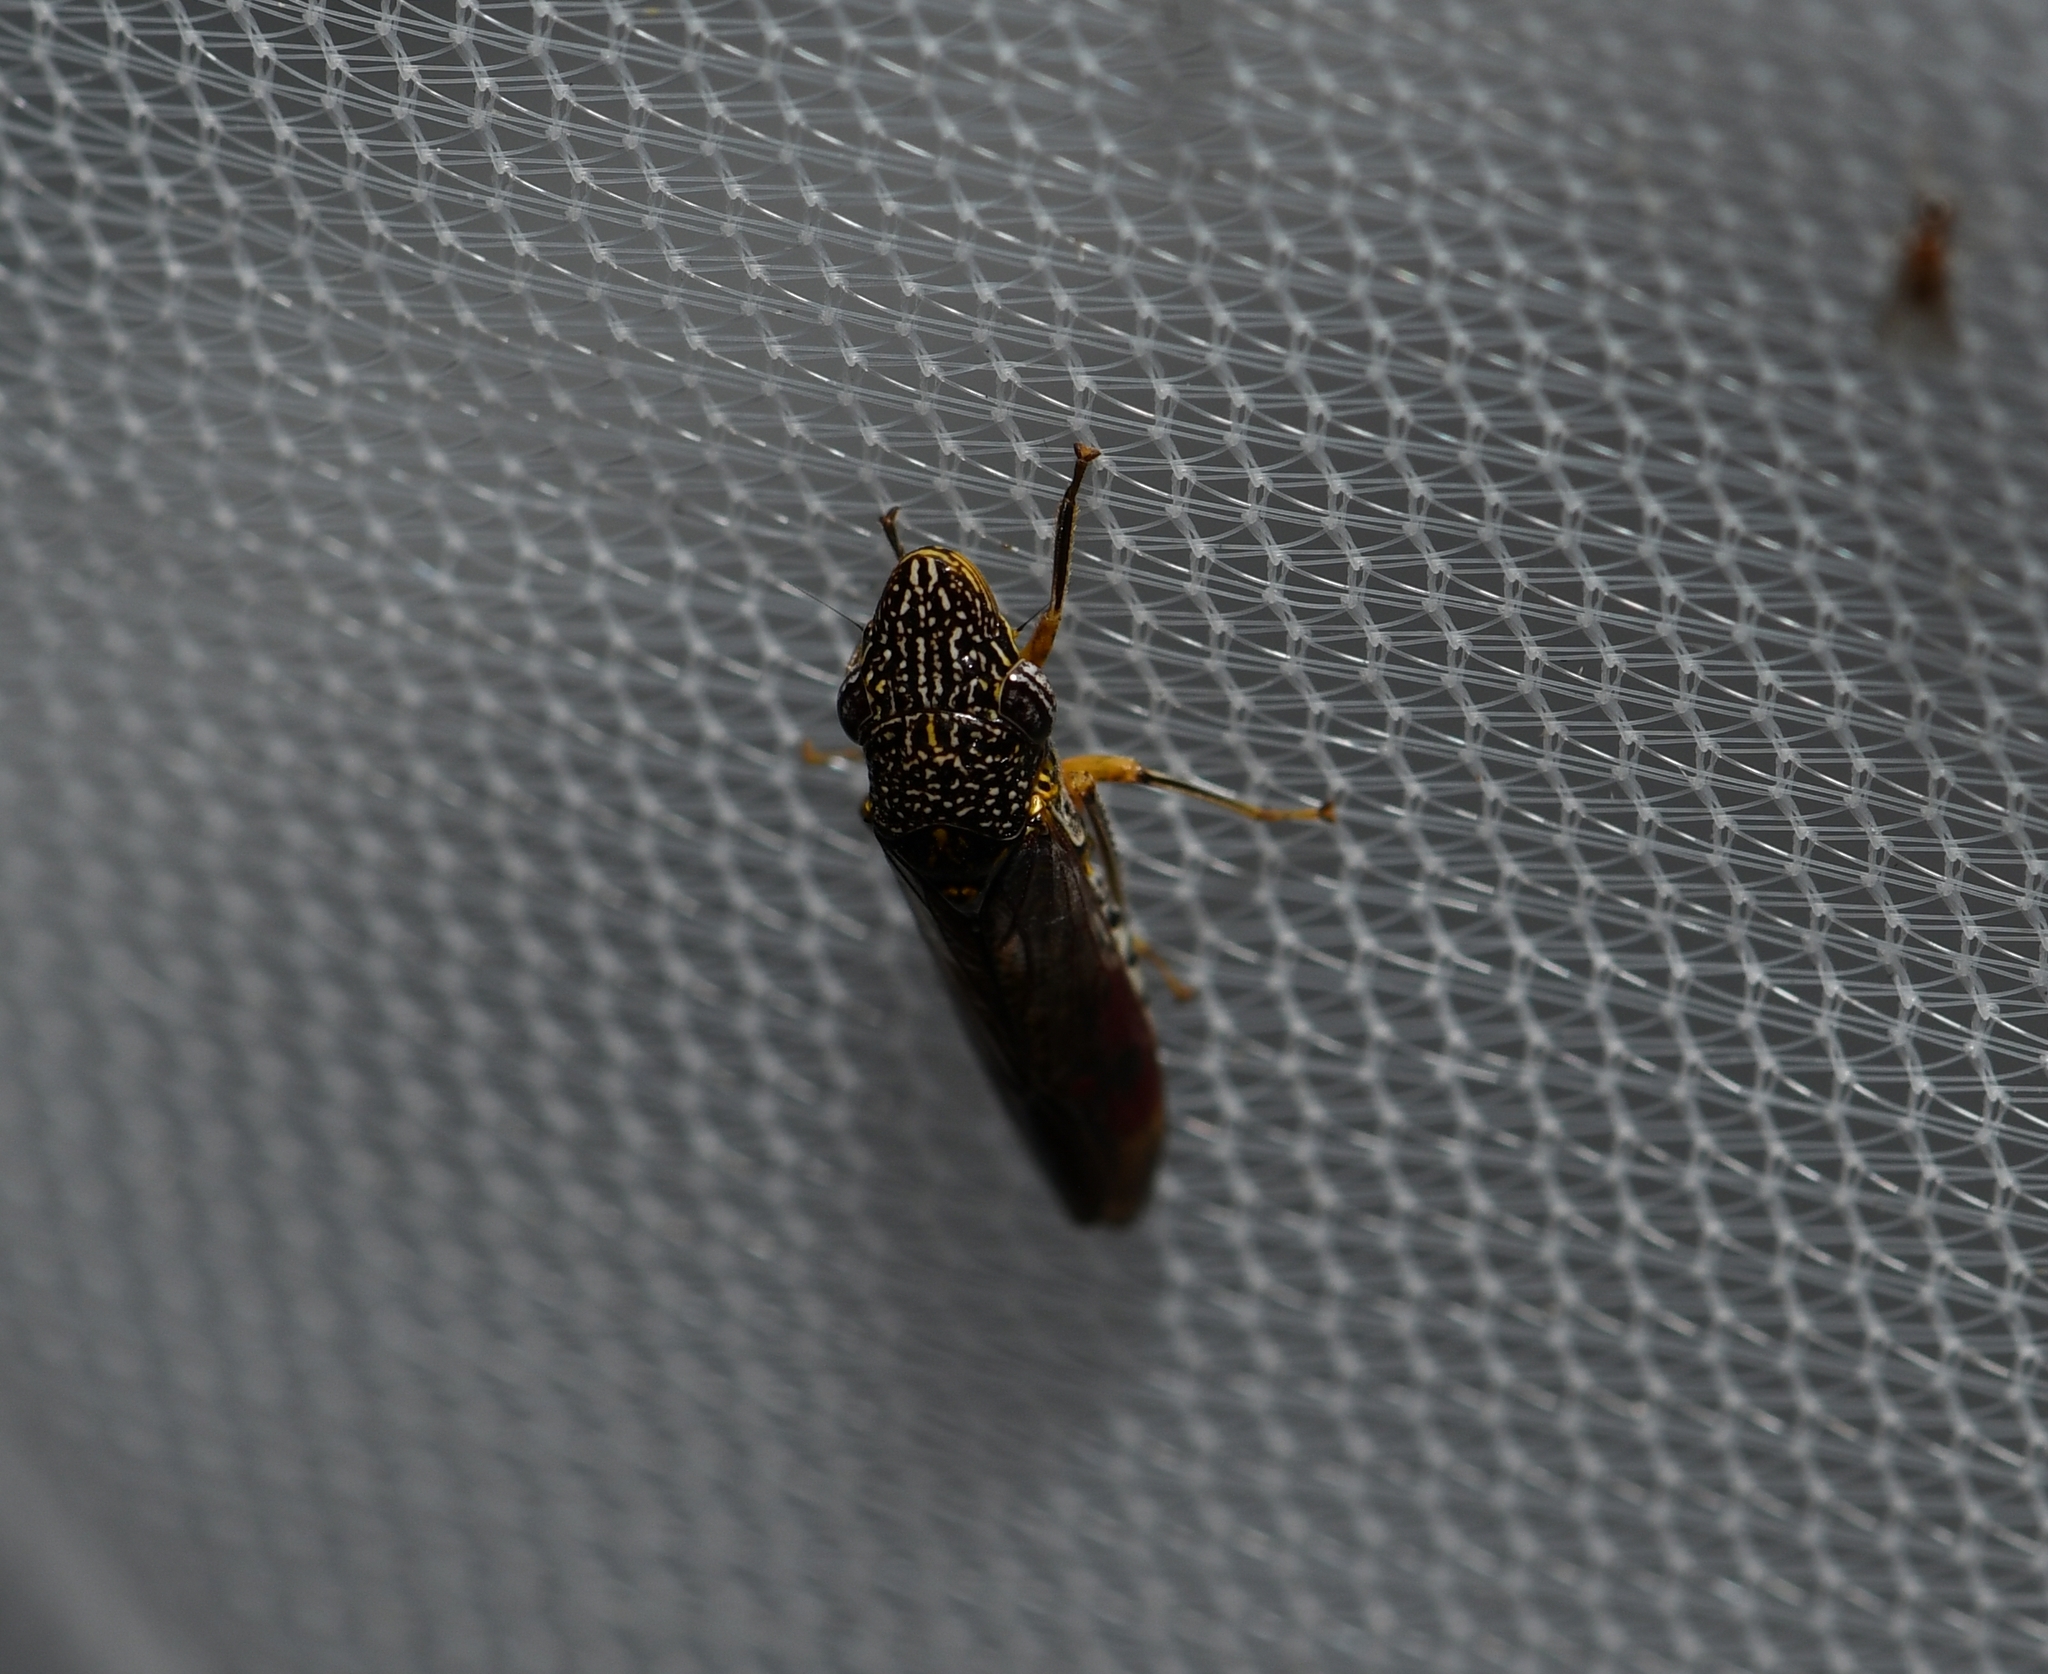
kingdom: Animalia
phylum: Arthropoda
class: Insecta
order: Hemiptera
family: Cicadellidae
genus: Homalodisca
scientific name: Homalodisca liturata
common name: Lacertate sharpshooter
